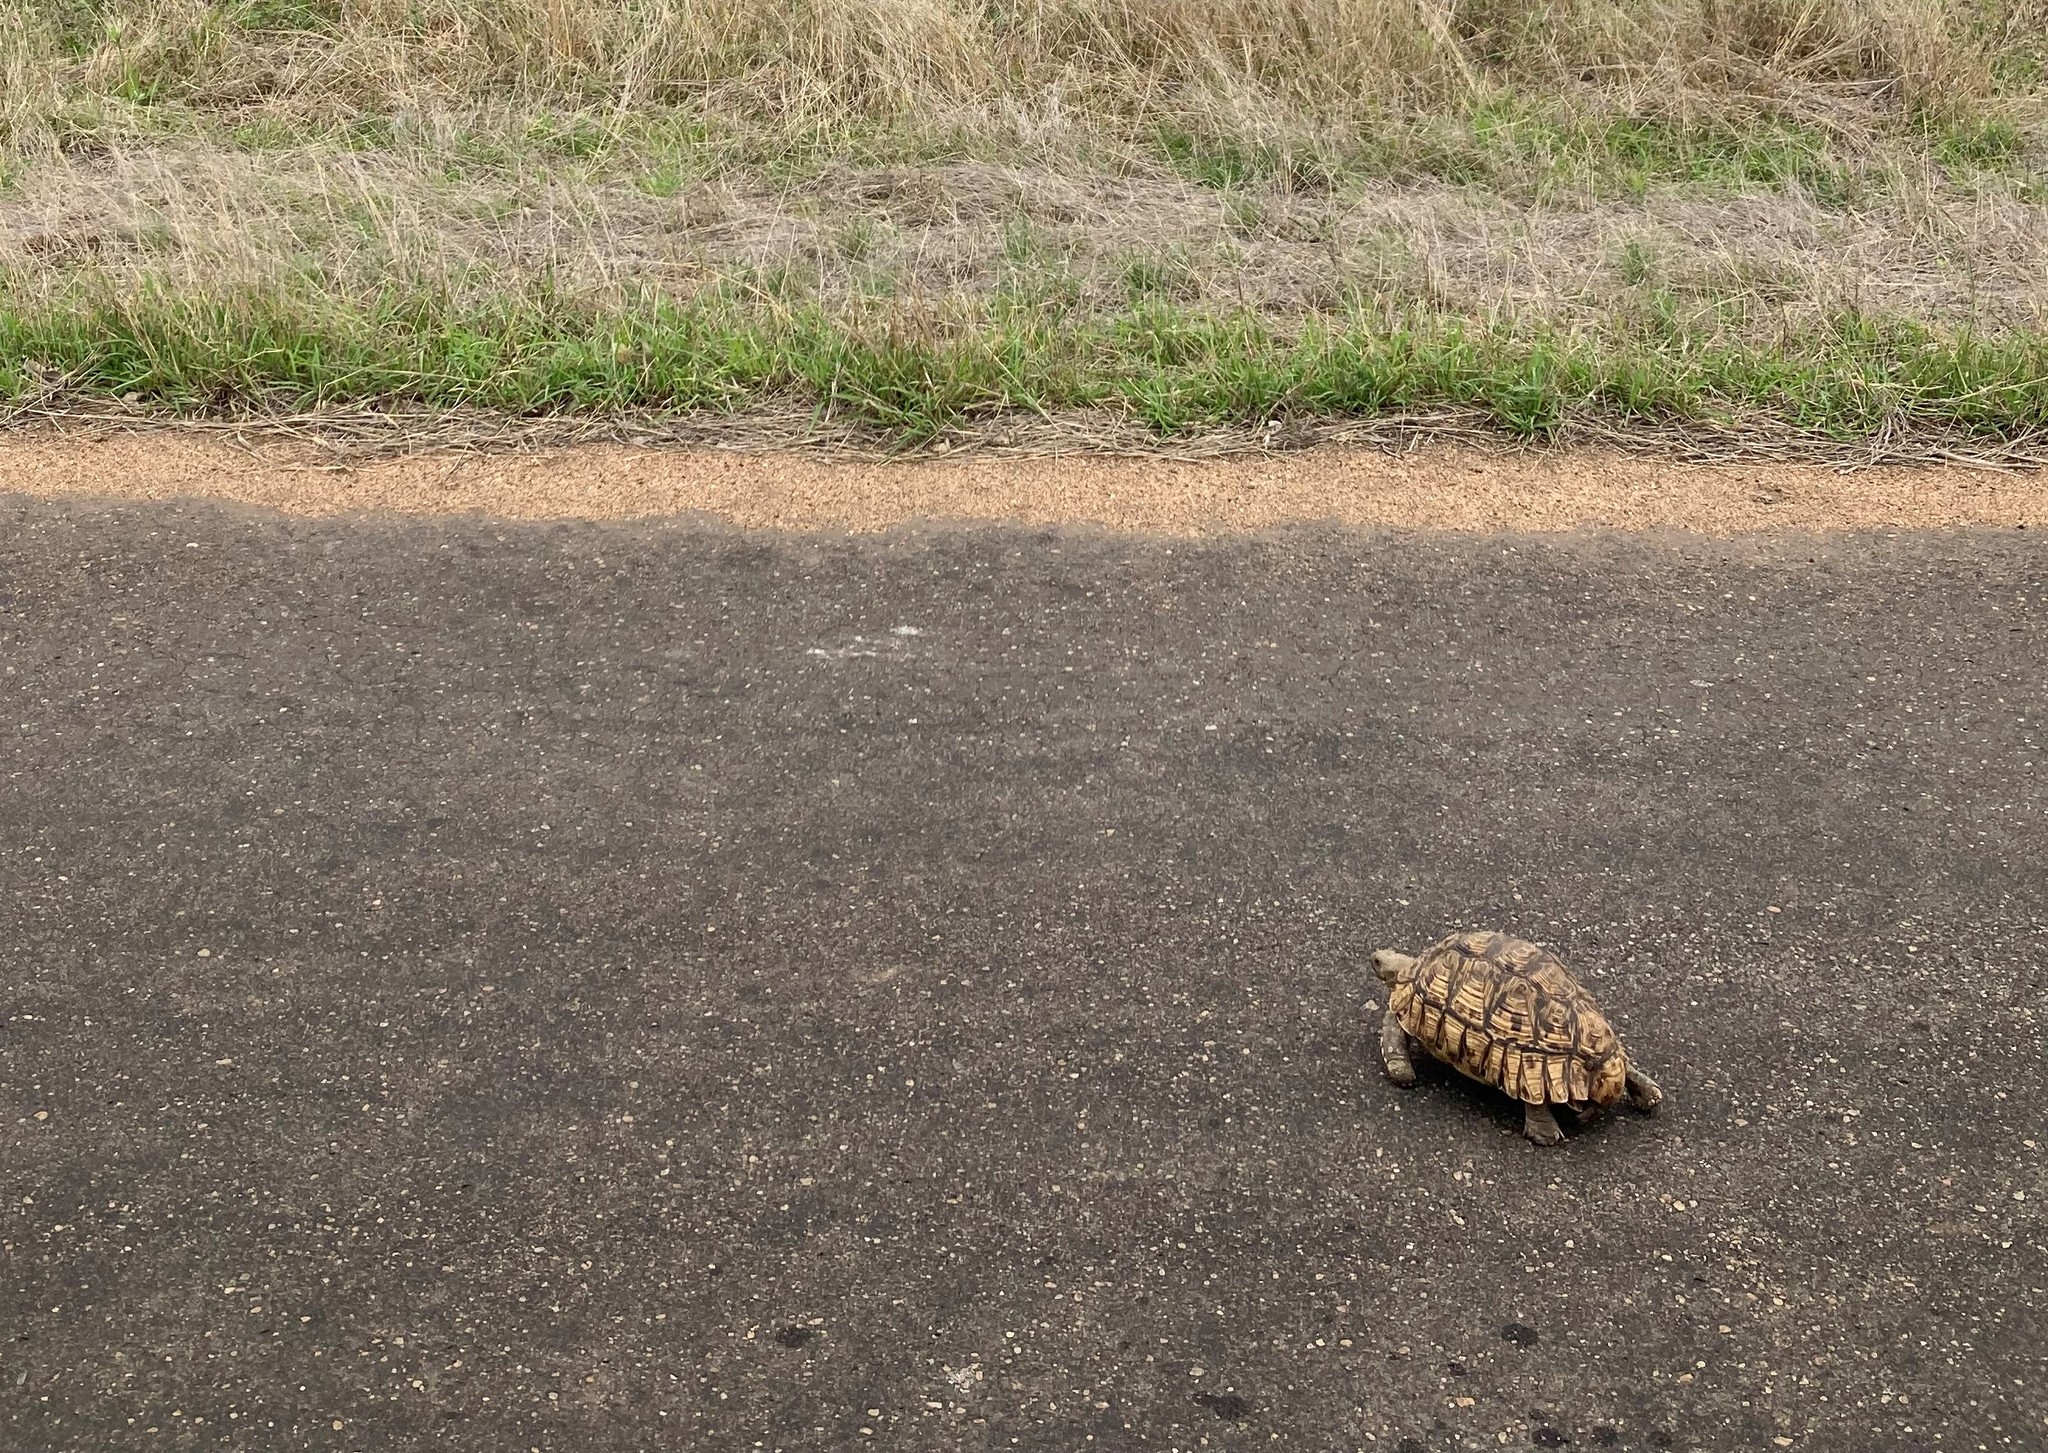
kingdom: Animalia
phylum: Chordata
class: Testudines
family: Testudinidae
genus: Stigmochelys
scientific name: Stigmochelys pardalis
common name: Leopard tortoise
